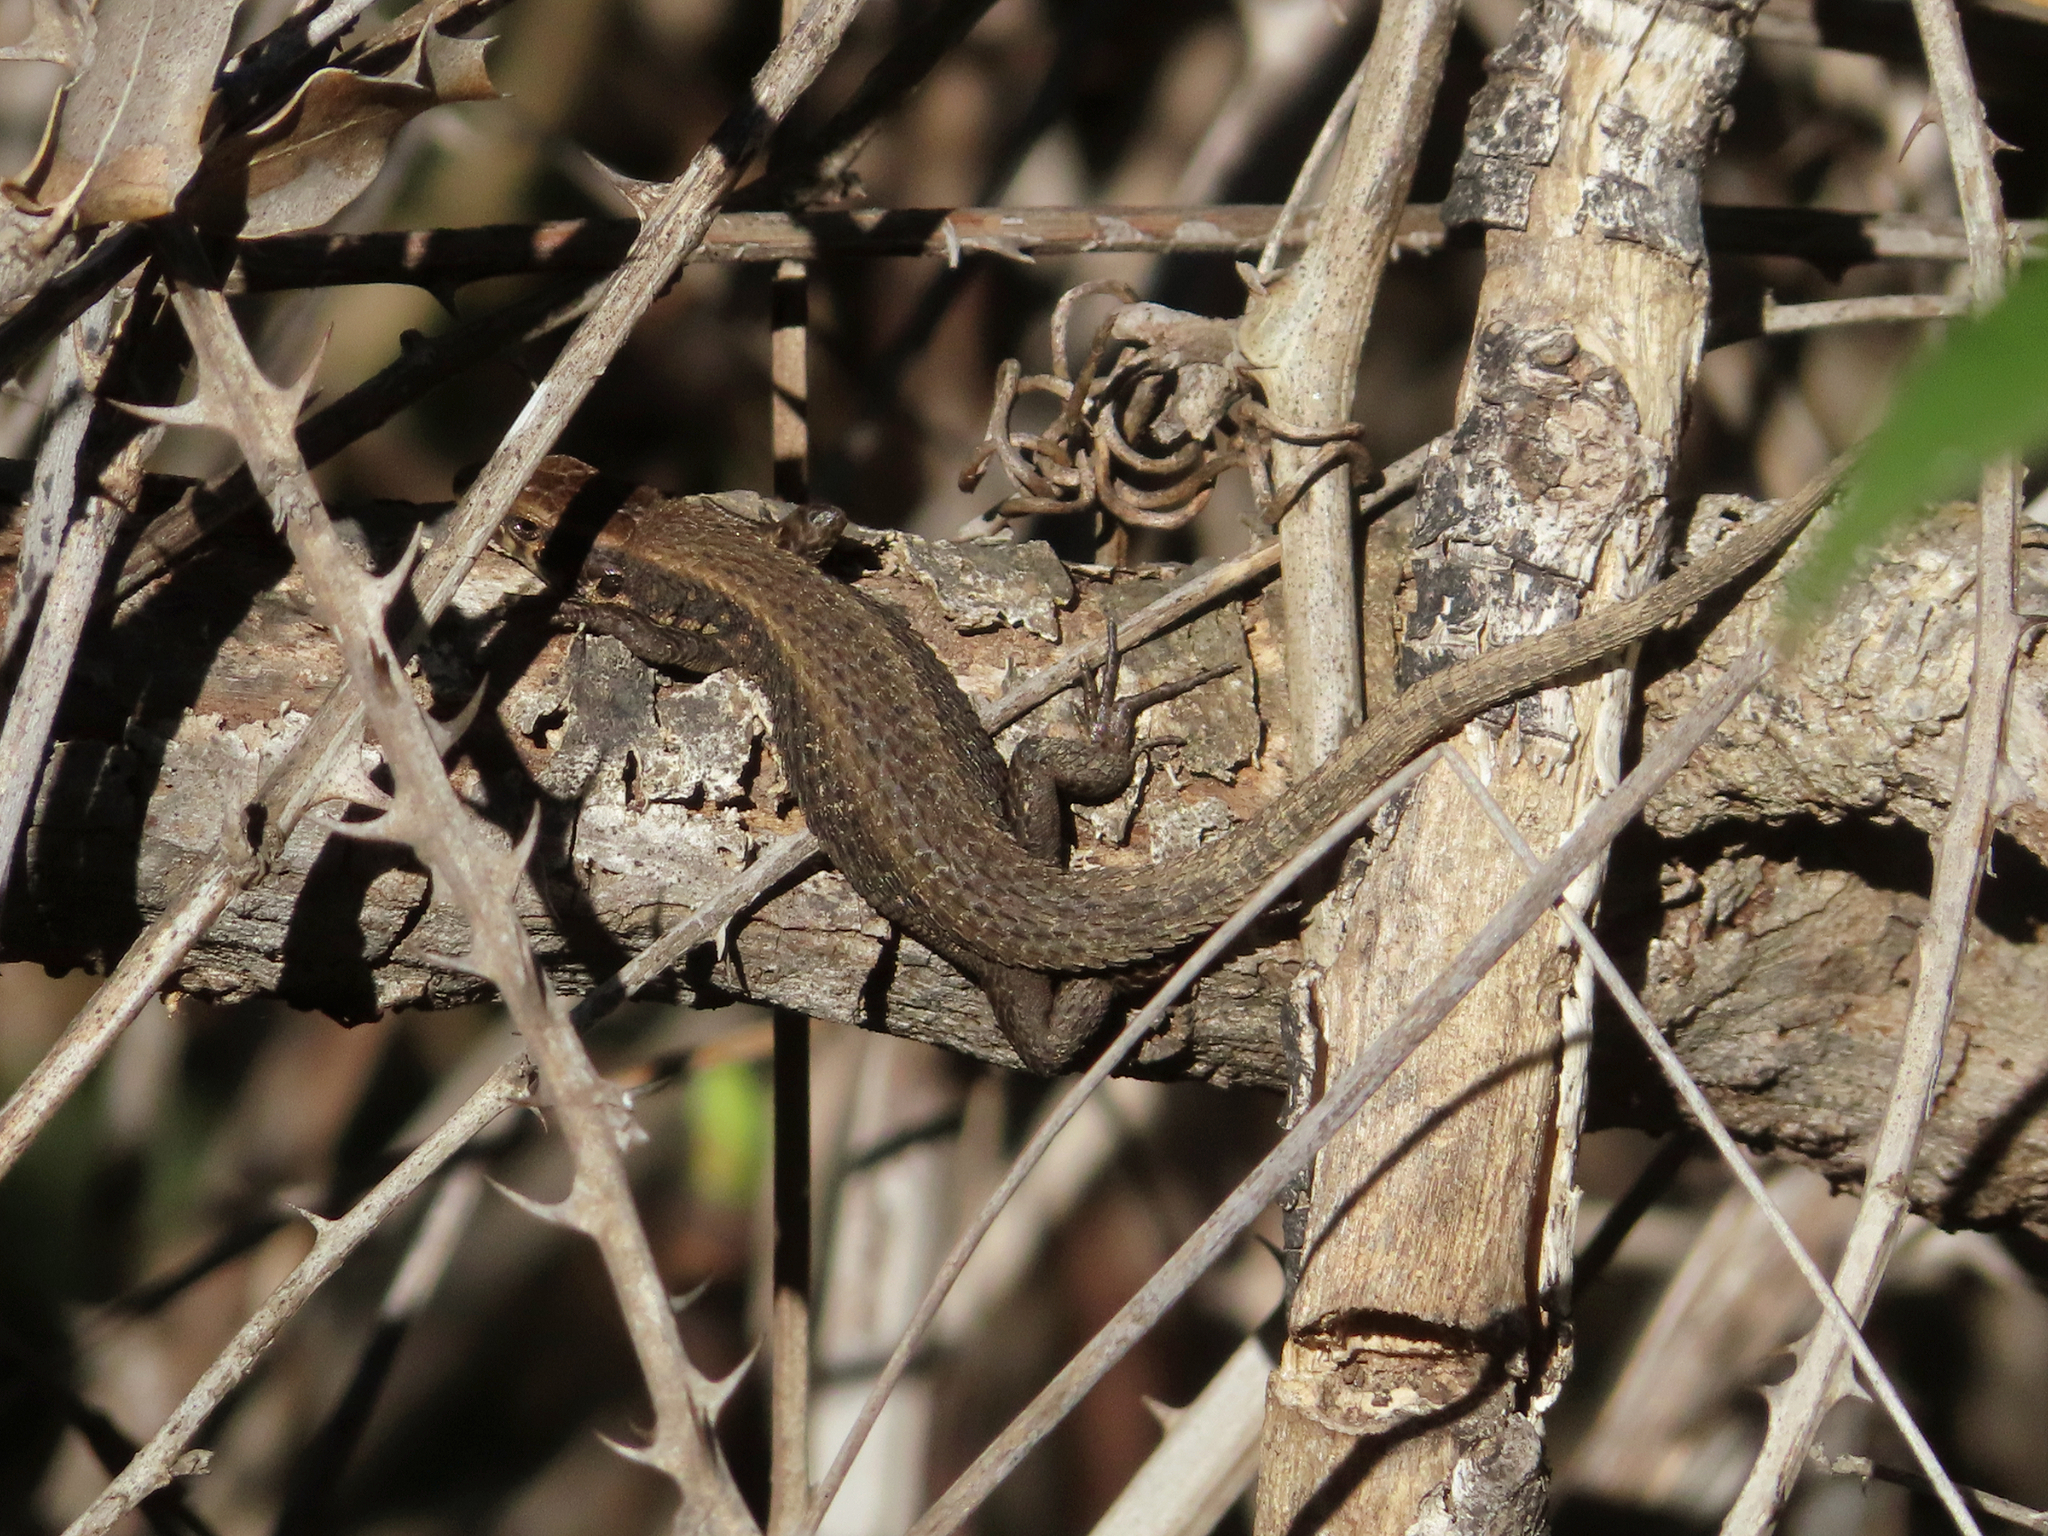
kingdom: Animalia
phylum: Chordata
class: Squamata
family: Lacertidae
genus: Algyroides
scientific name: Algyroides moreoticus
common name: Greek algyroides
